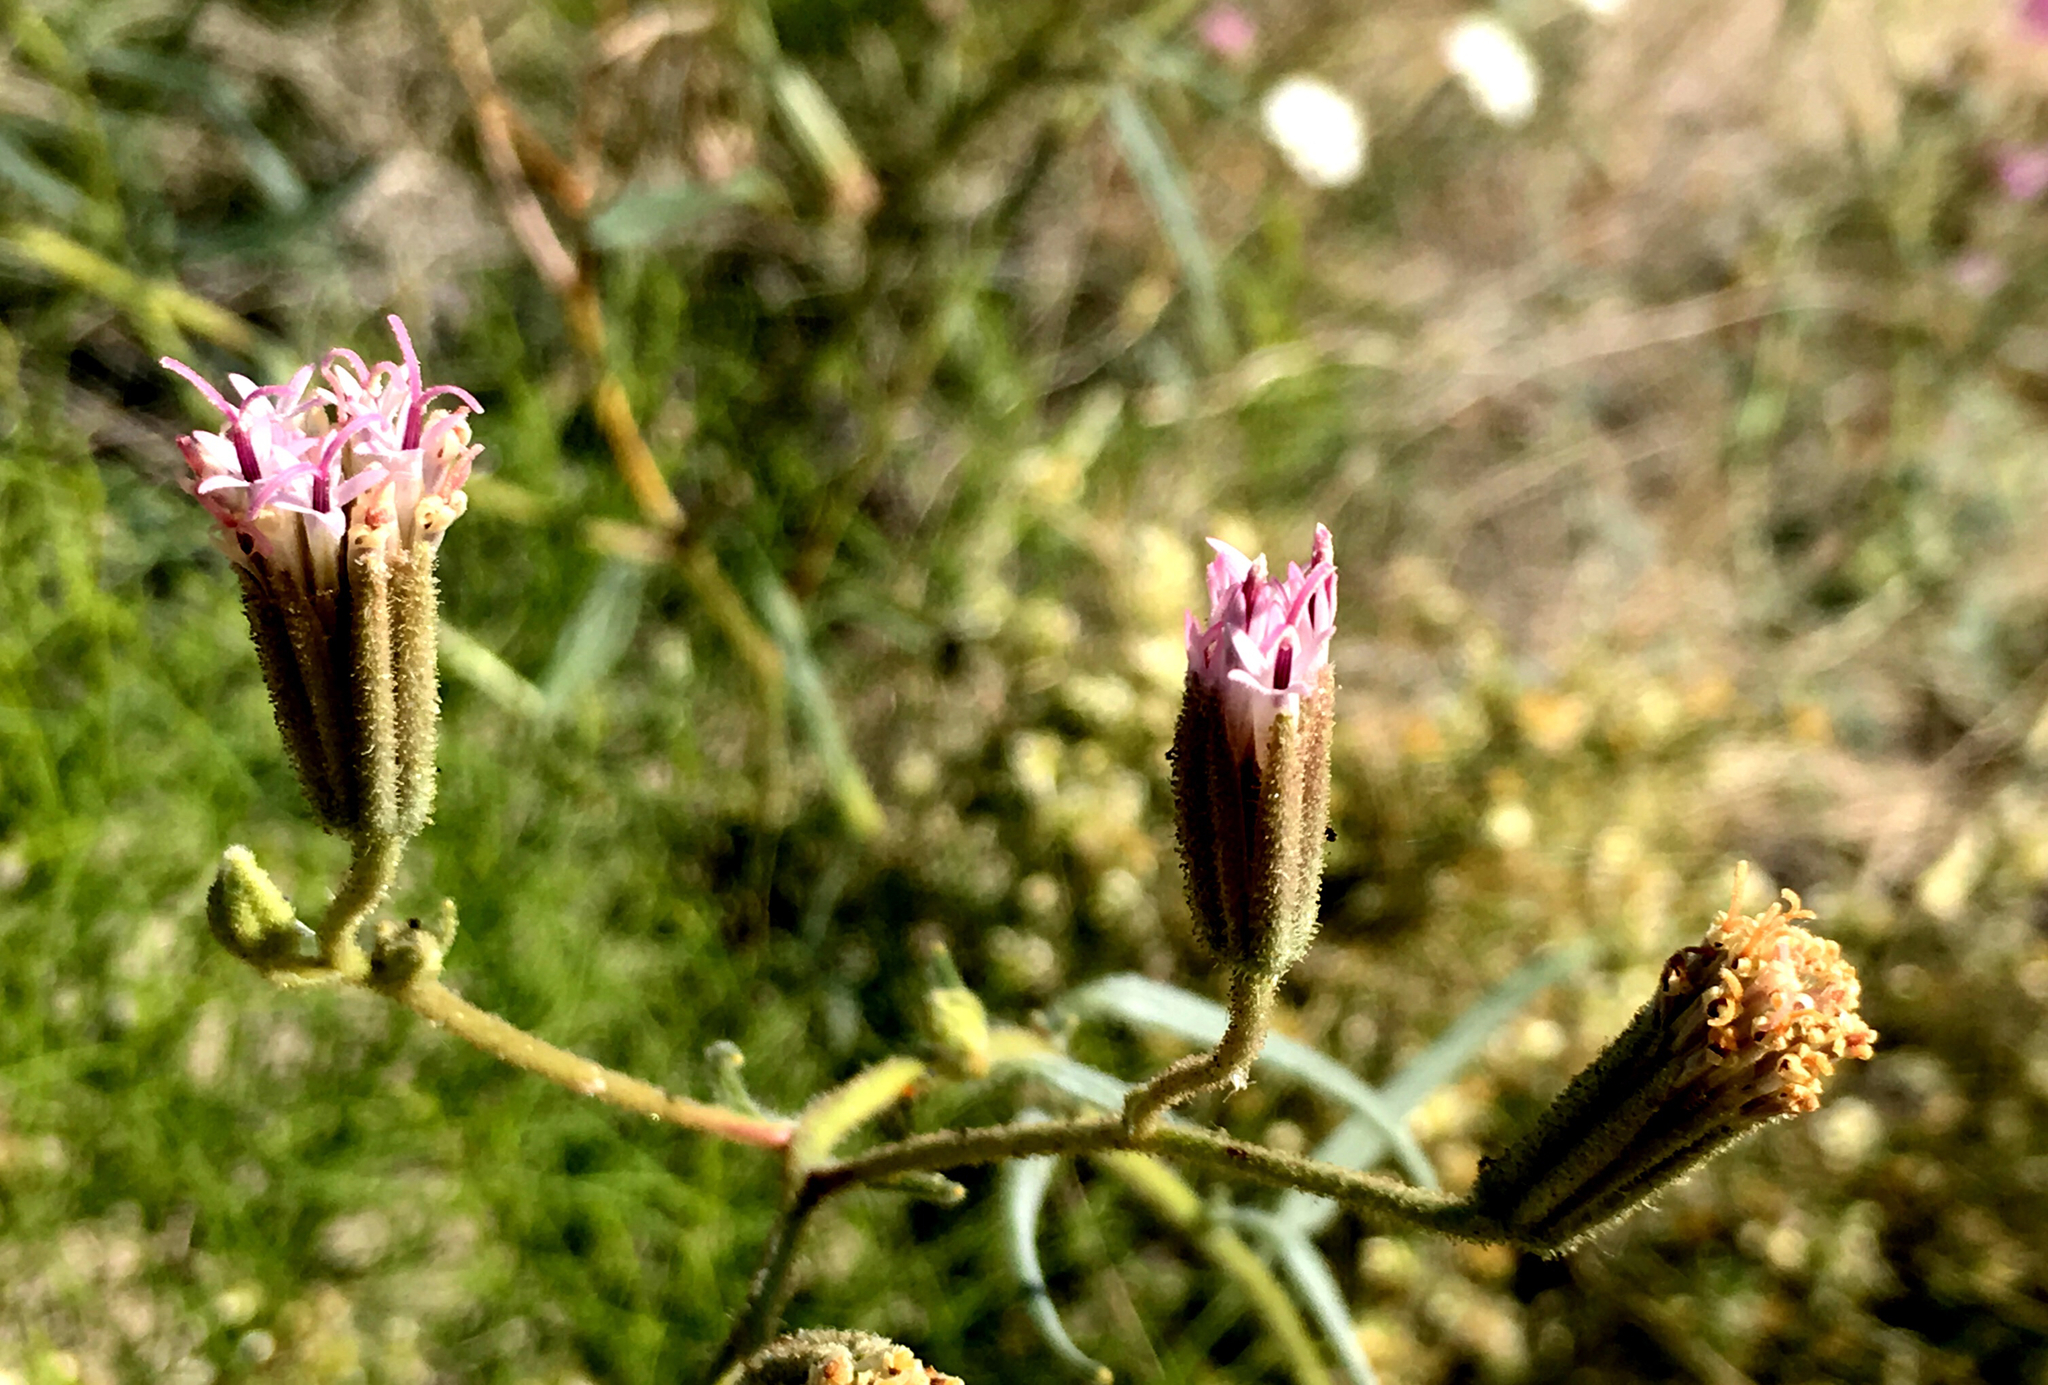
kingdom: Plantae
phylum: Tracheophyta
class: Magnoliopsida
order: Asterales
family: Asteraceae
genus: Palafoxia
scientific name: Palafoxia arida
